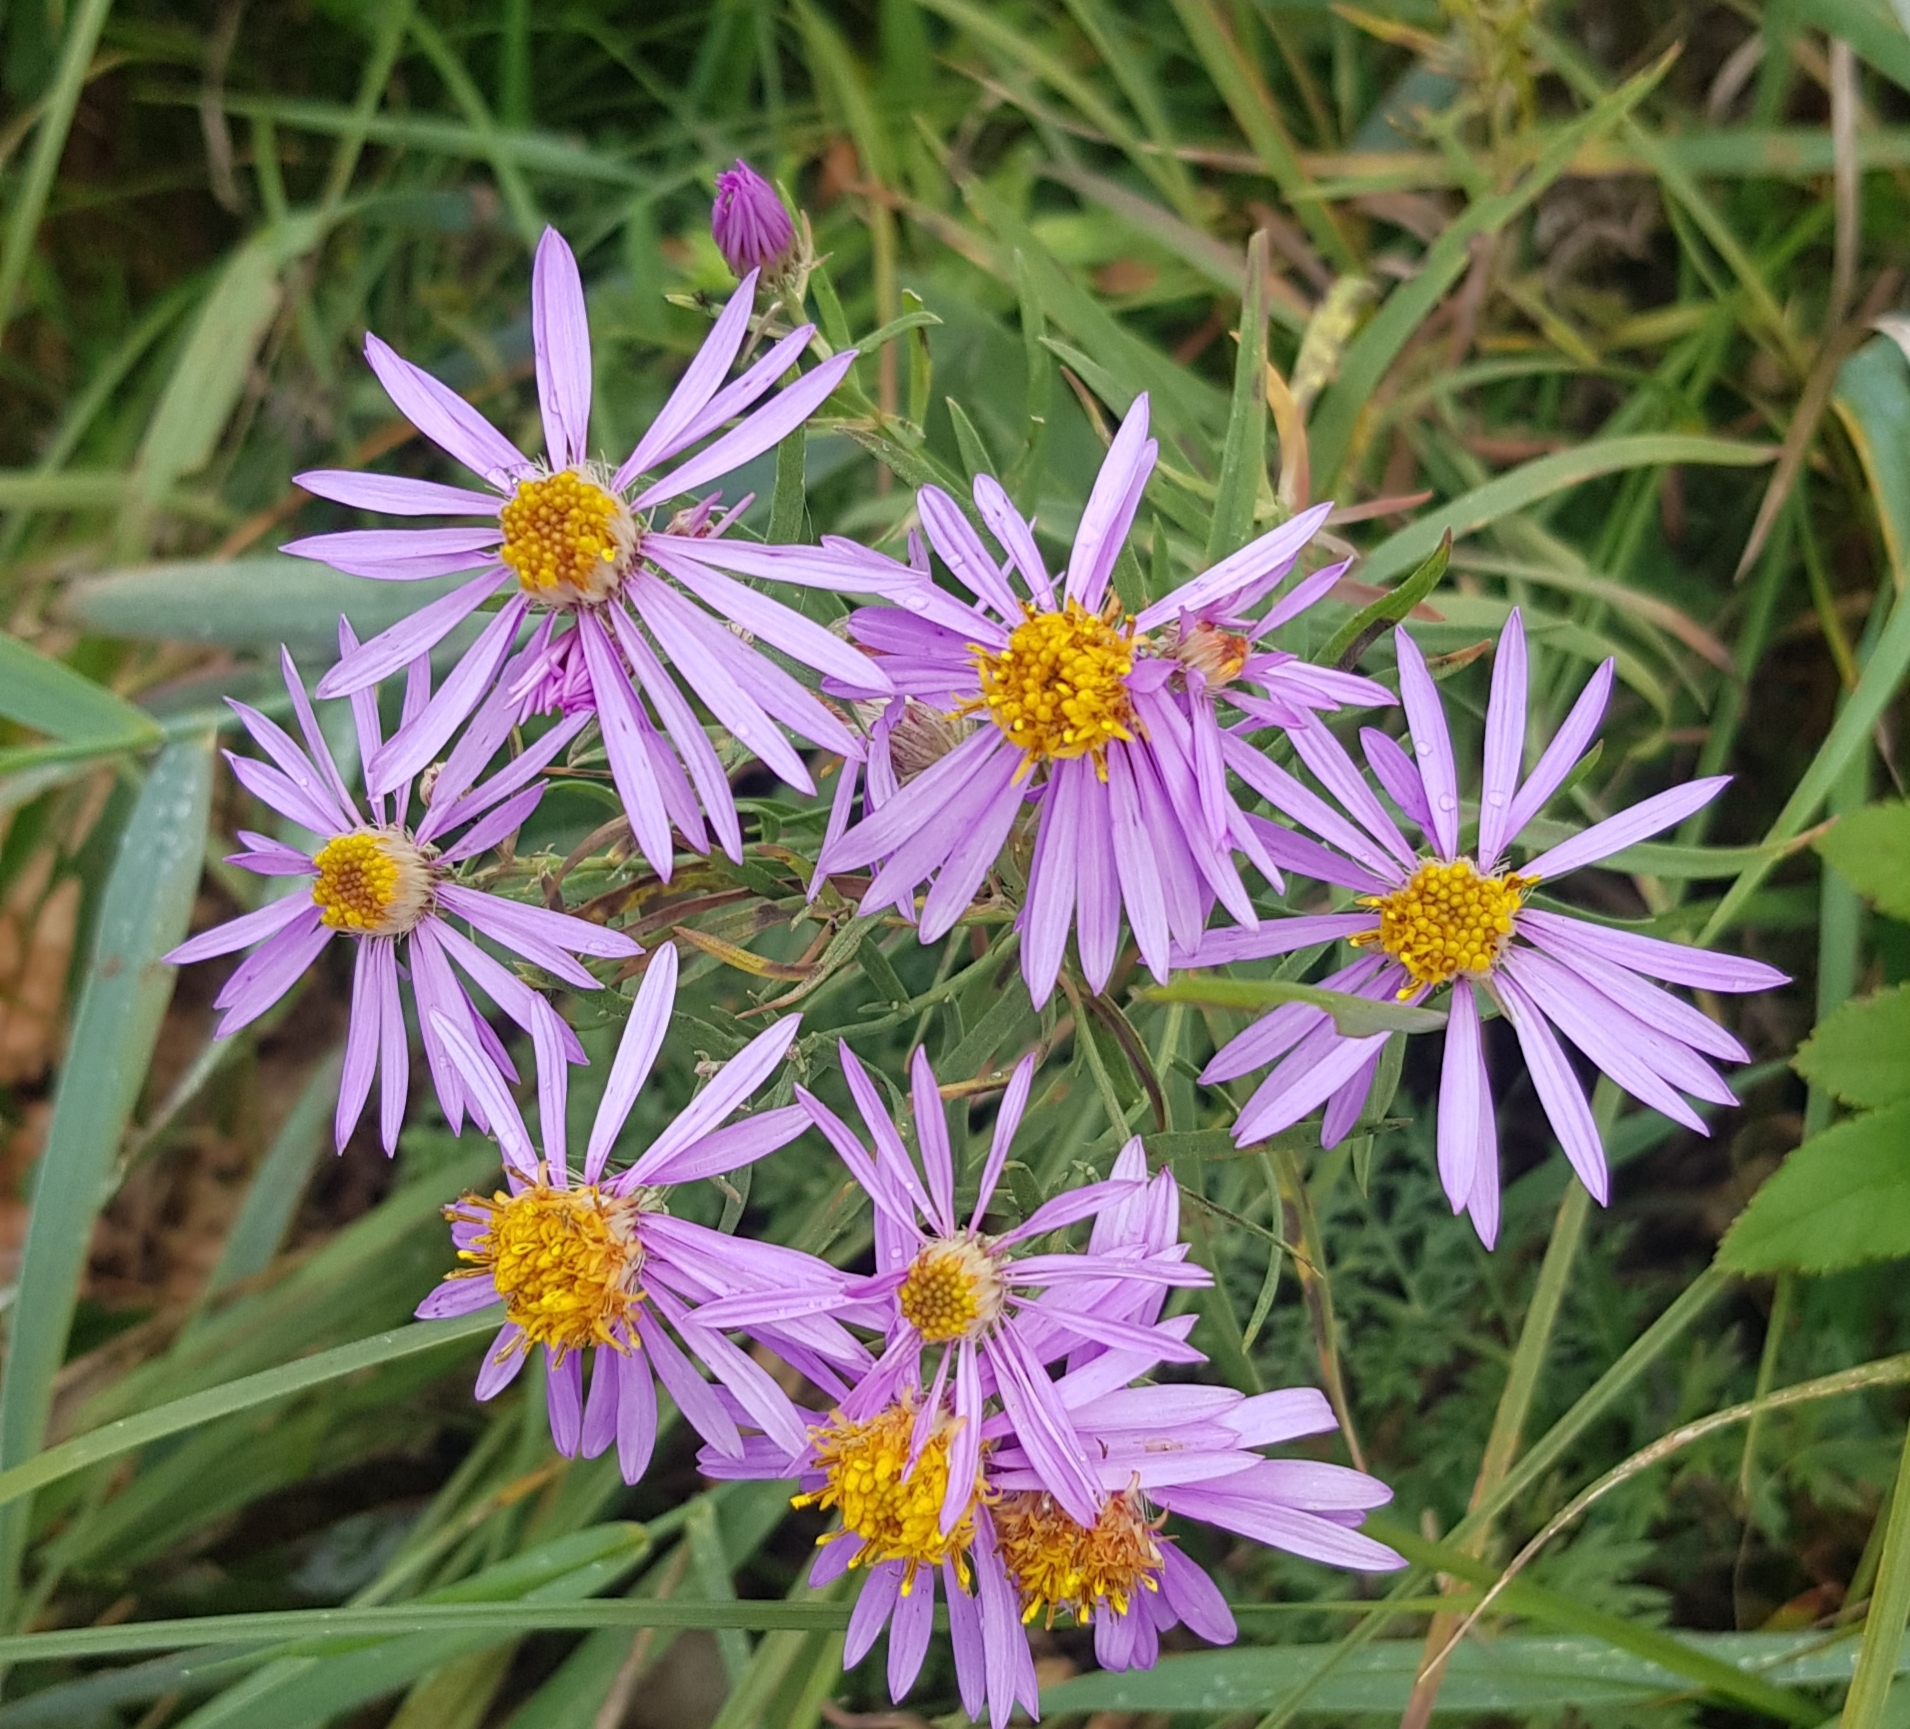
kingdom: Plantae
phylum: Tracheophyta
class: Magnoliopsida
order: Asterales
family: Asteraceae
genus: Galatella
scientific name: Galatella dahurica
